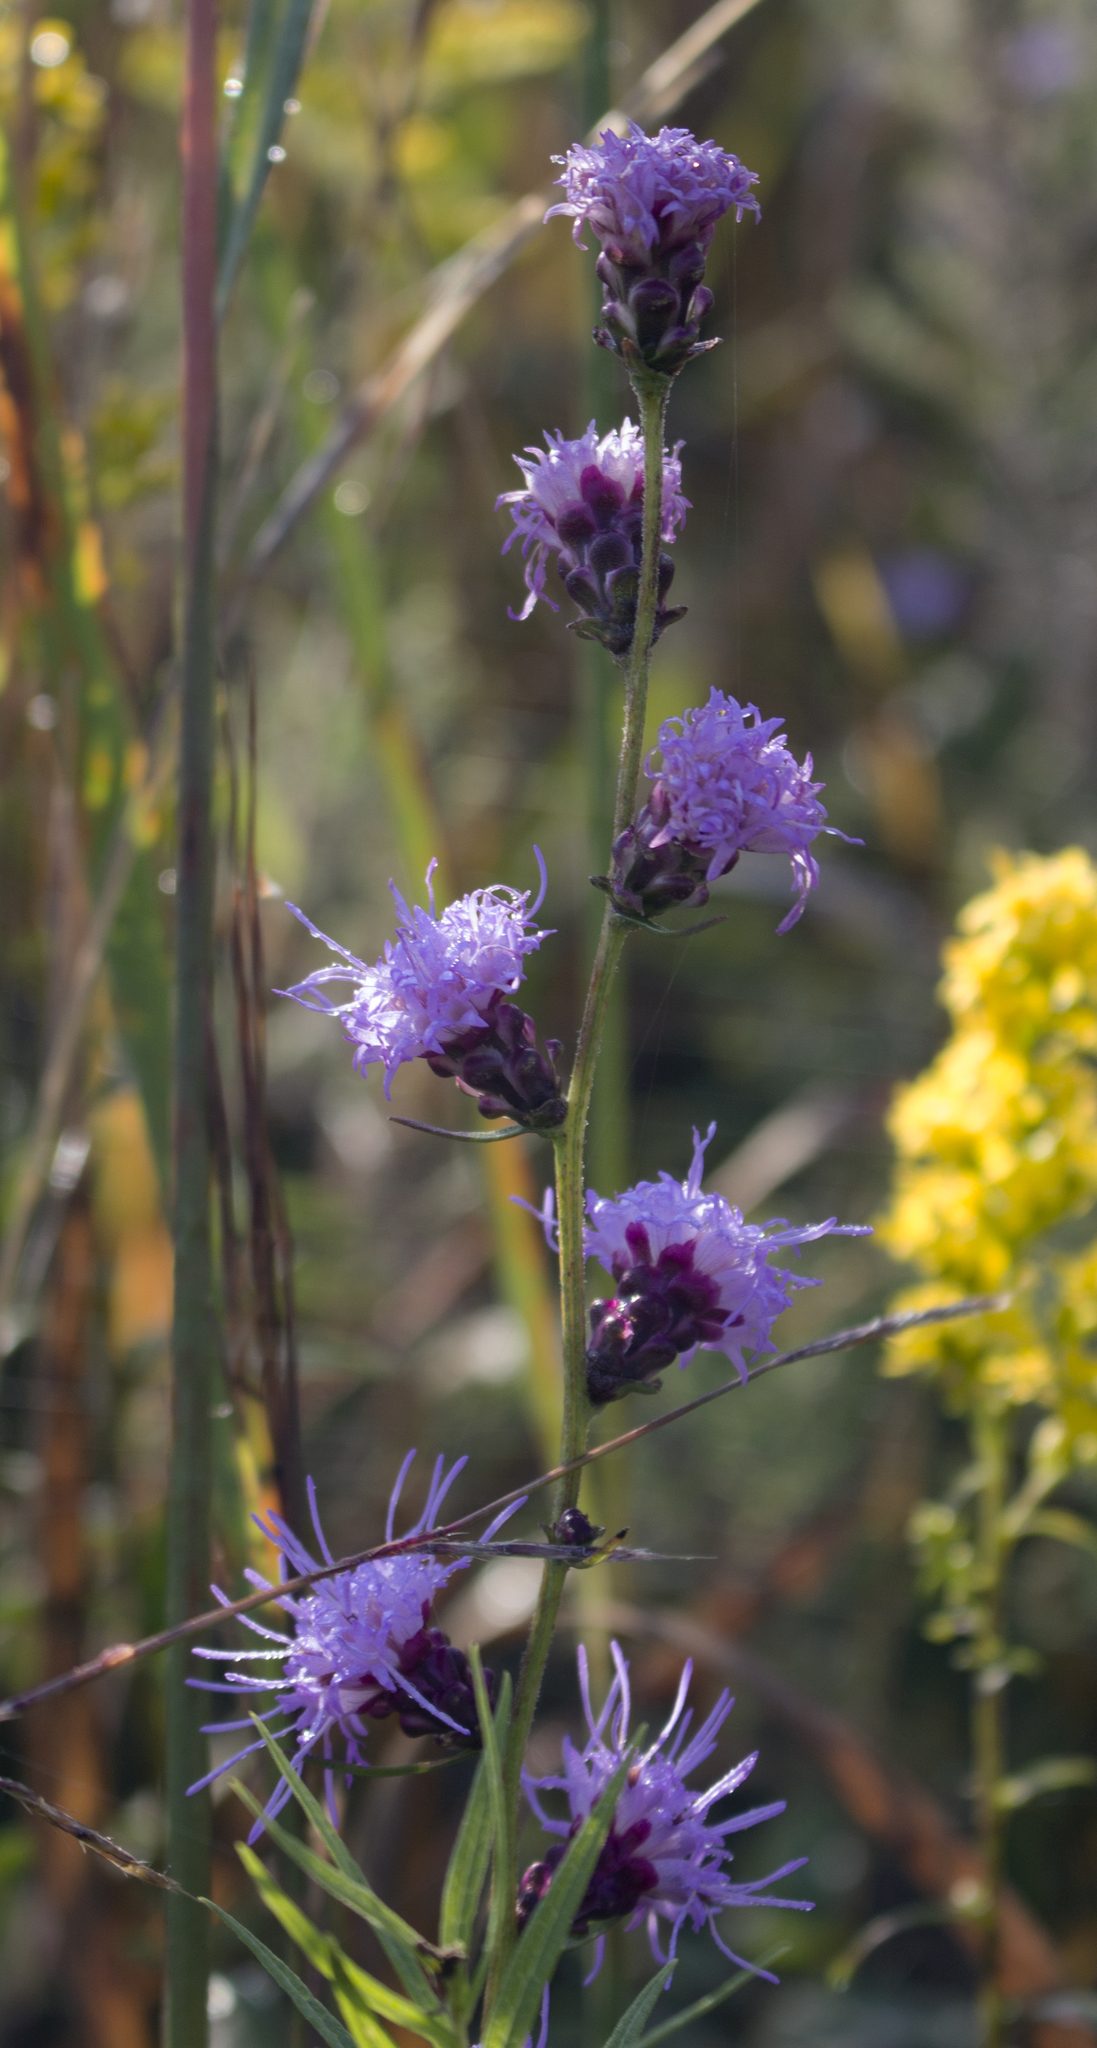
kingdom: Plantae
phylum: Tracheophyta
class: Magnoliopsida
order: Asterales
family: Asteraceae
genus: Liatris
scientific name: Liatris aspera
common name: Lacerate blazing-star
